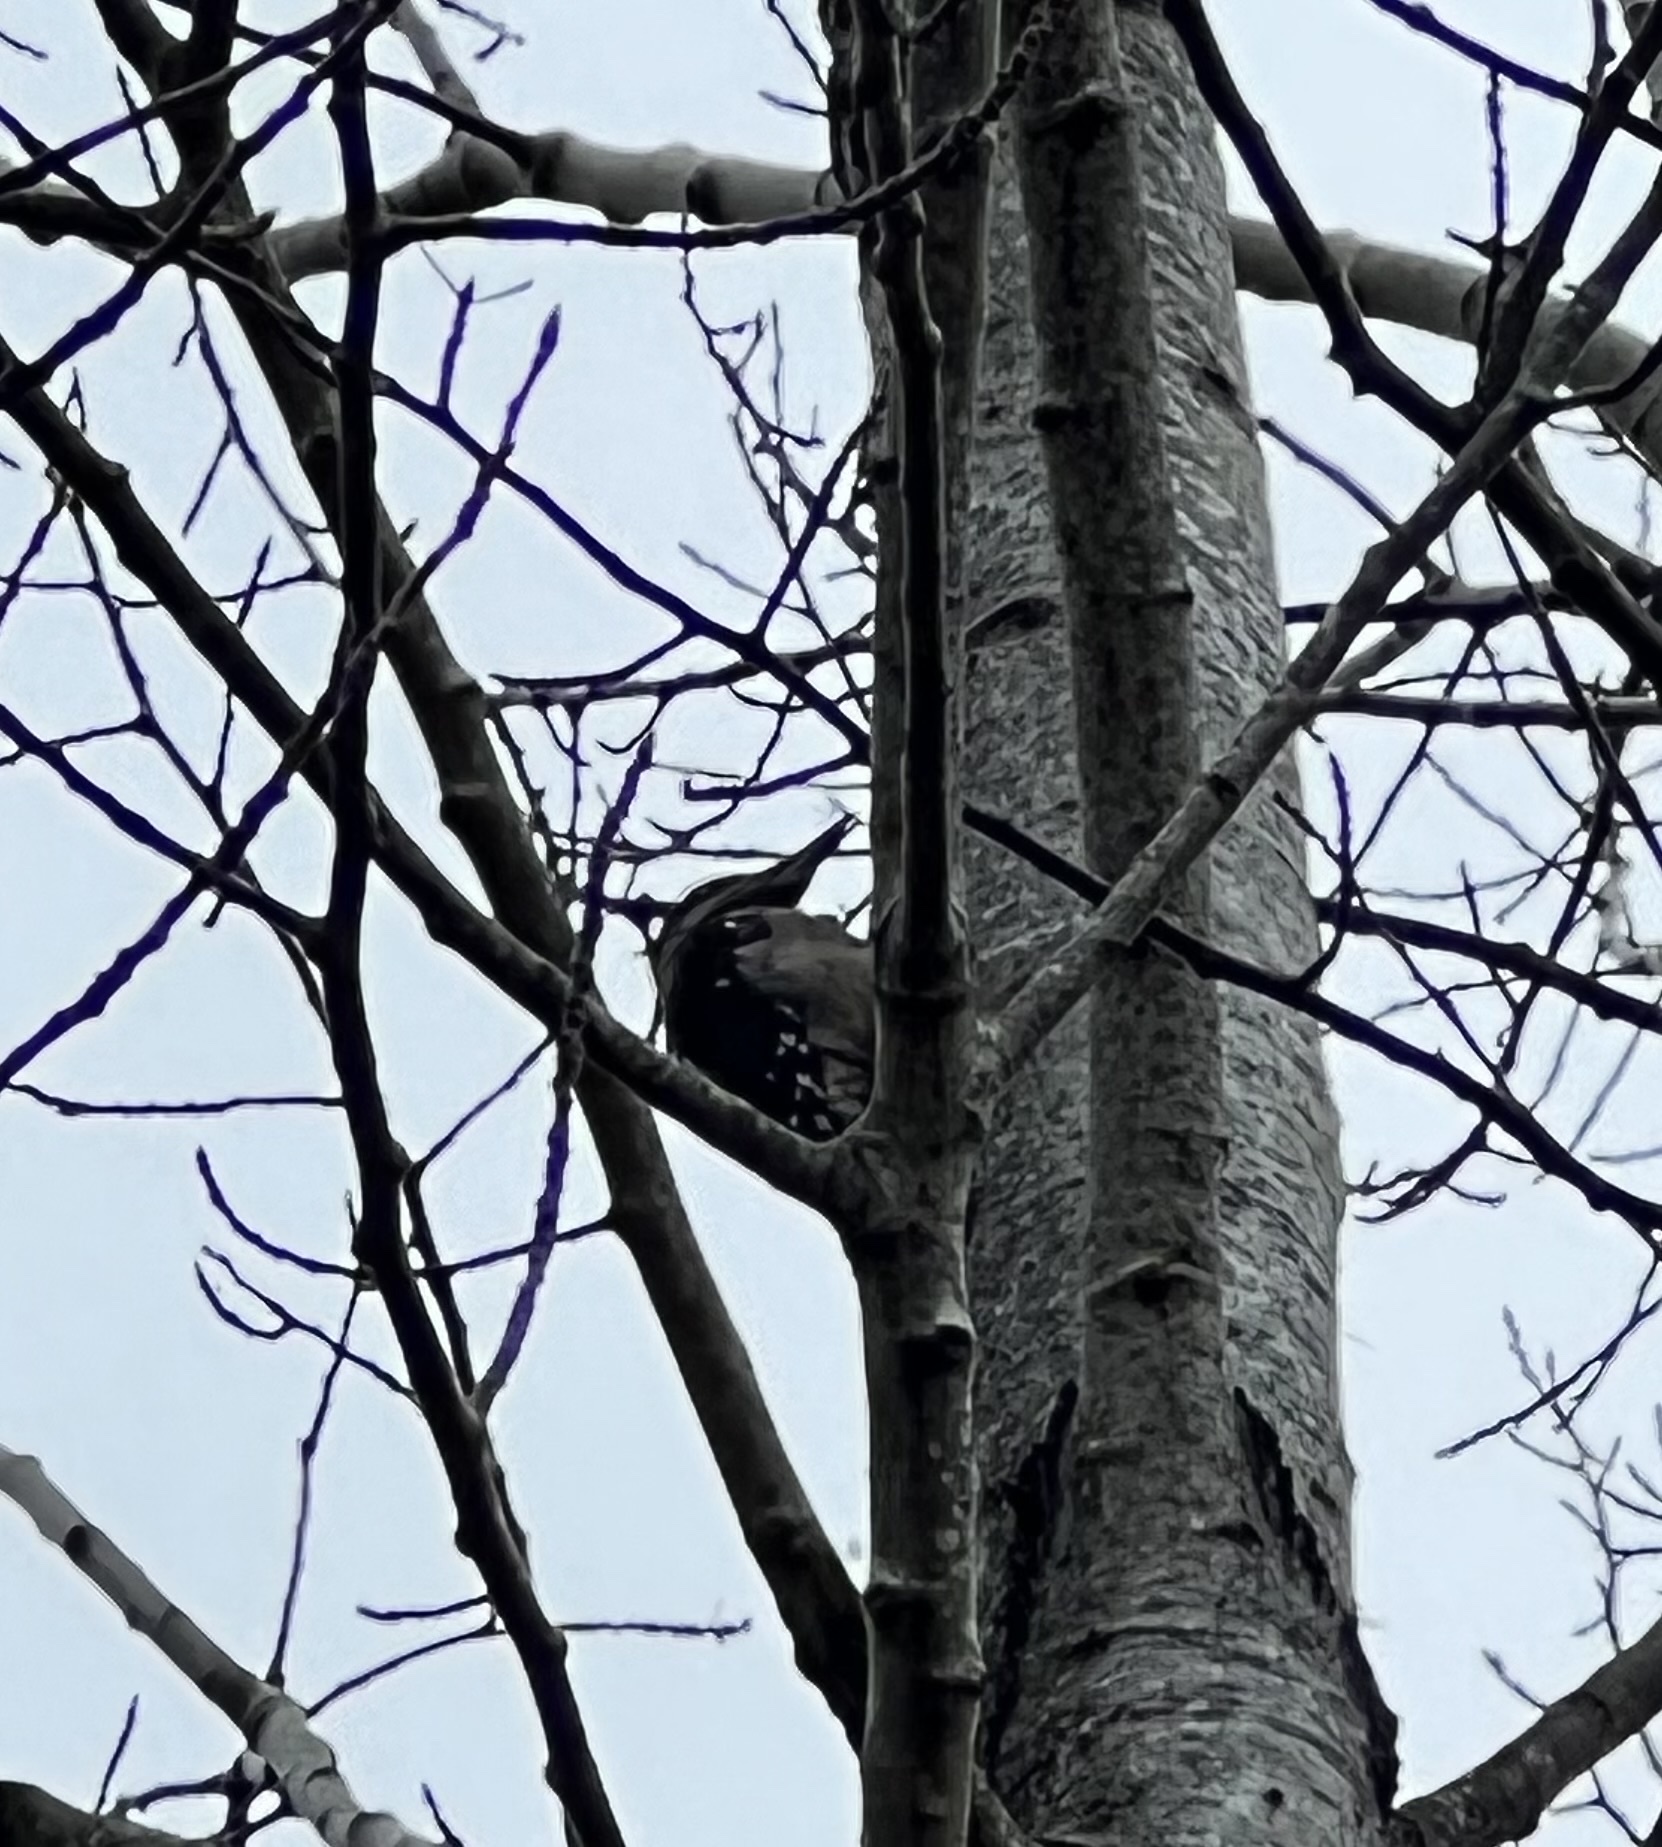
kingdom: Animalia
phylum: Chordata
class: Aves
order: Piciformes
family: Picidae
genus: Leuconotopicus
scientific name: Leuconotopicus villosus
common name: Hairy woodpecker
